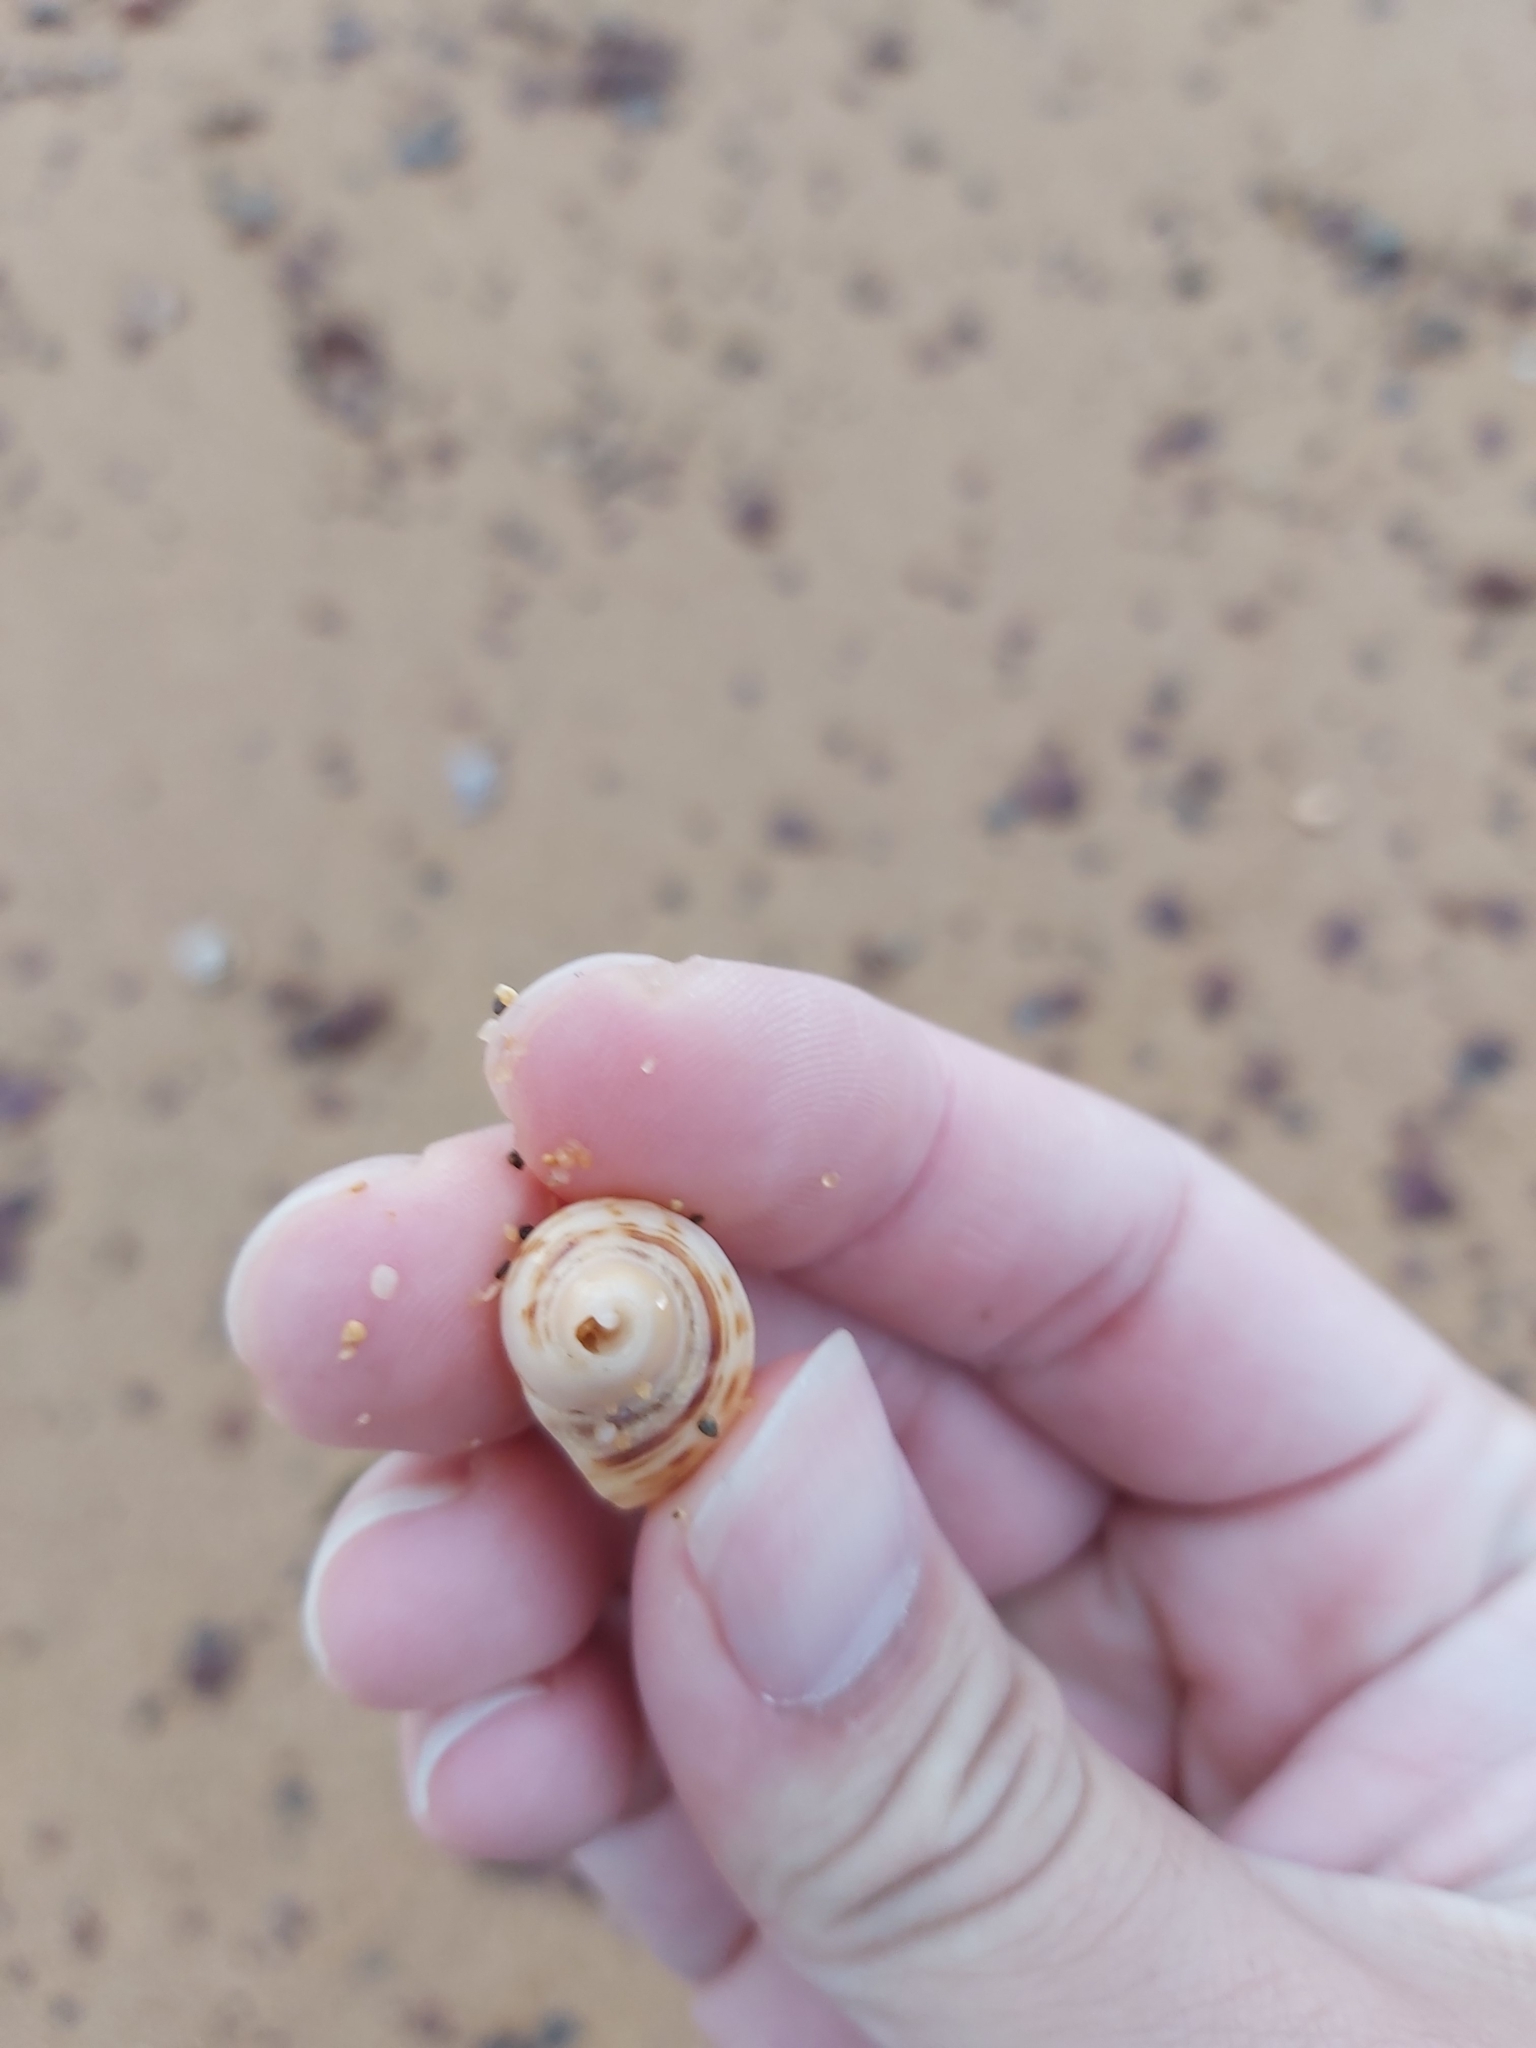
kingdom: Animalia
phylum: Mollusca
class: Gastropoda
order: Neogastropoda
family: Muricidae
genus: Dicathais
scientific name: Dicathais orbita
